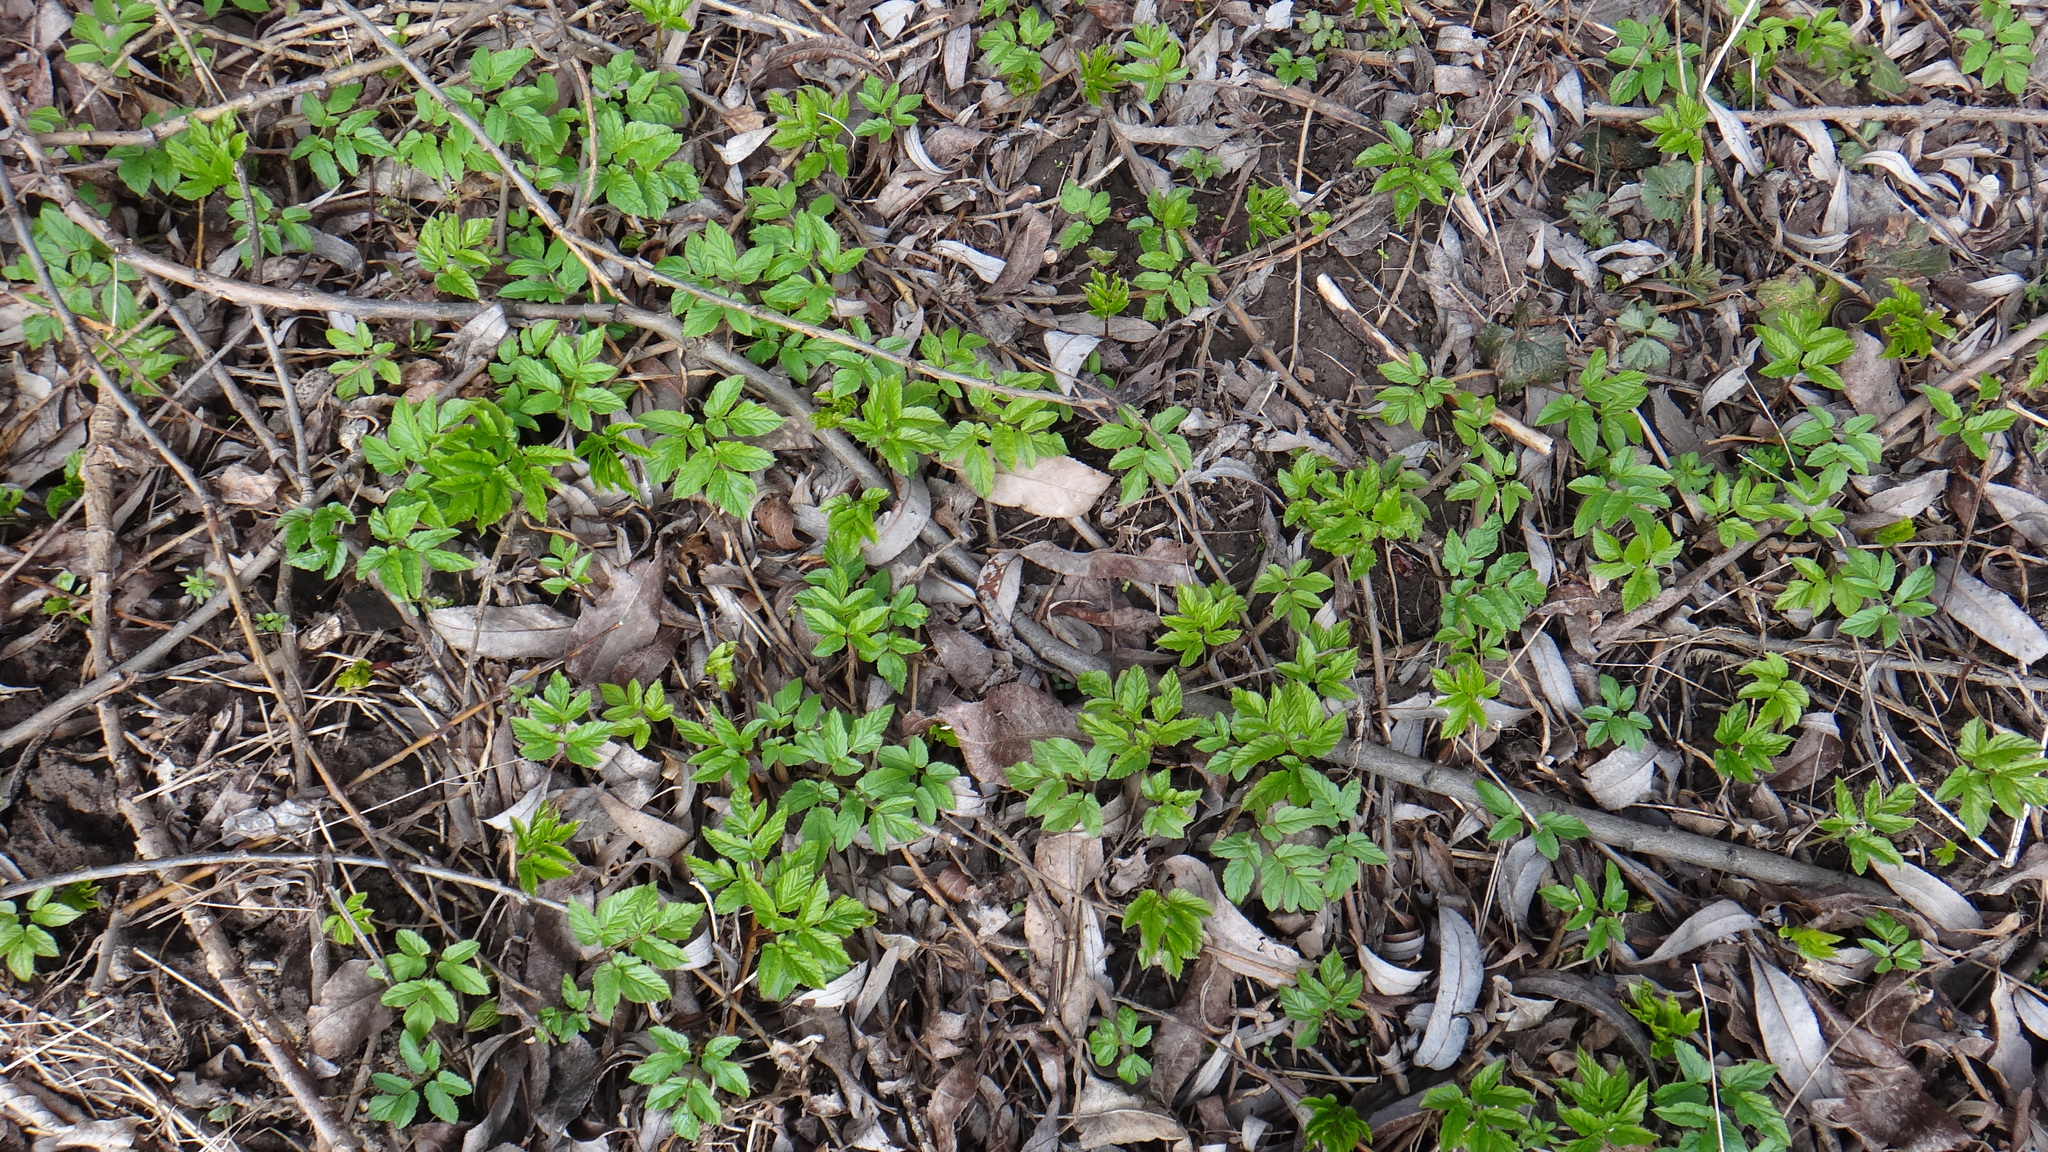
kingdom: Plantae
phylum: Tracheophyta
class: Magnoliopsida
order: Apiales
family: Apiaceae
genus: Aegopodium
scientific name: Aegopodium podagraria
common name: Ground-elder
